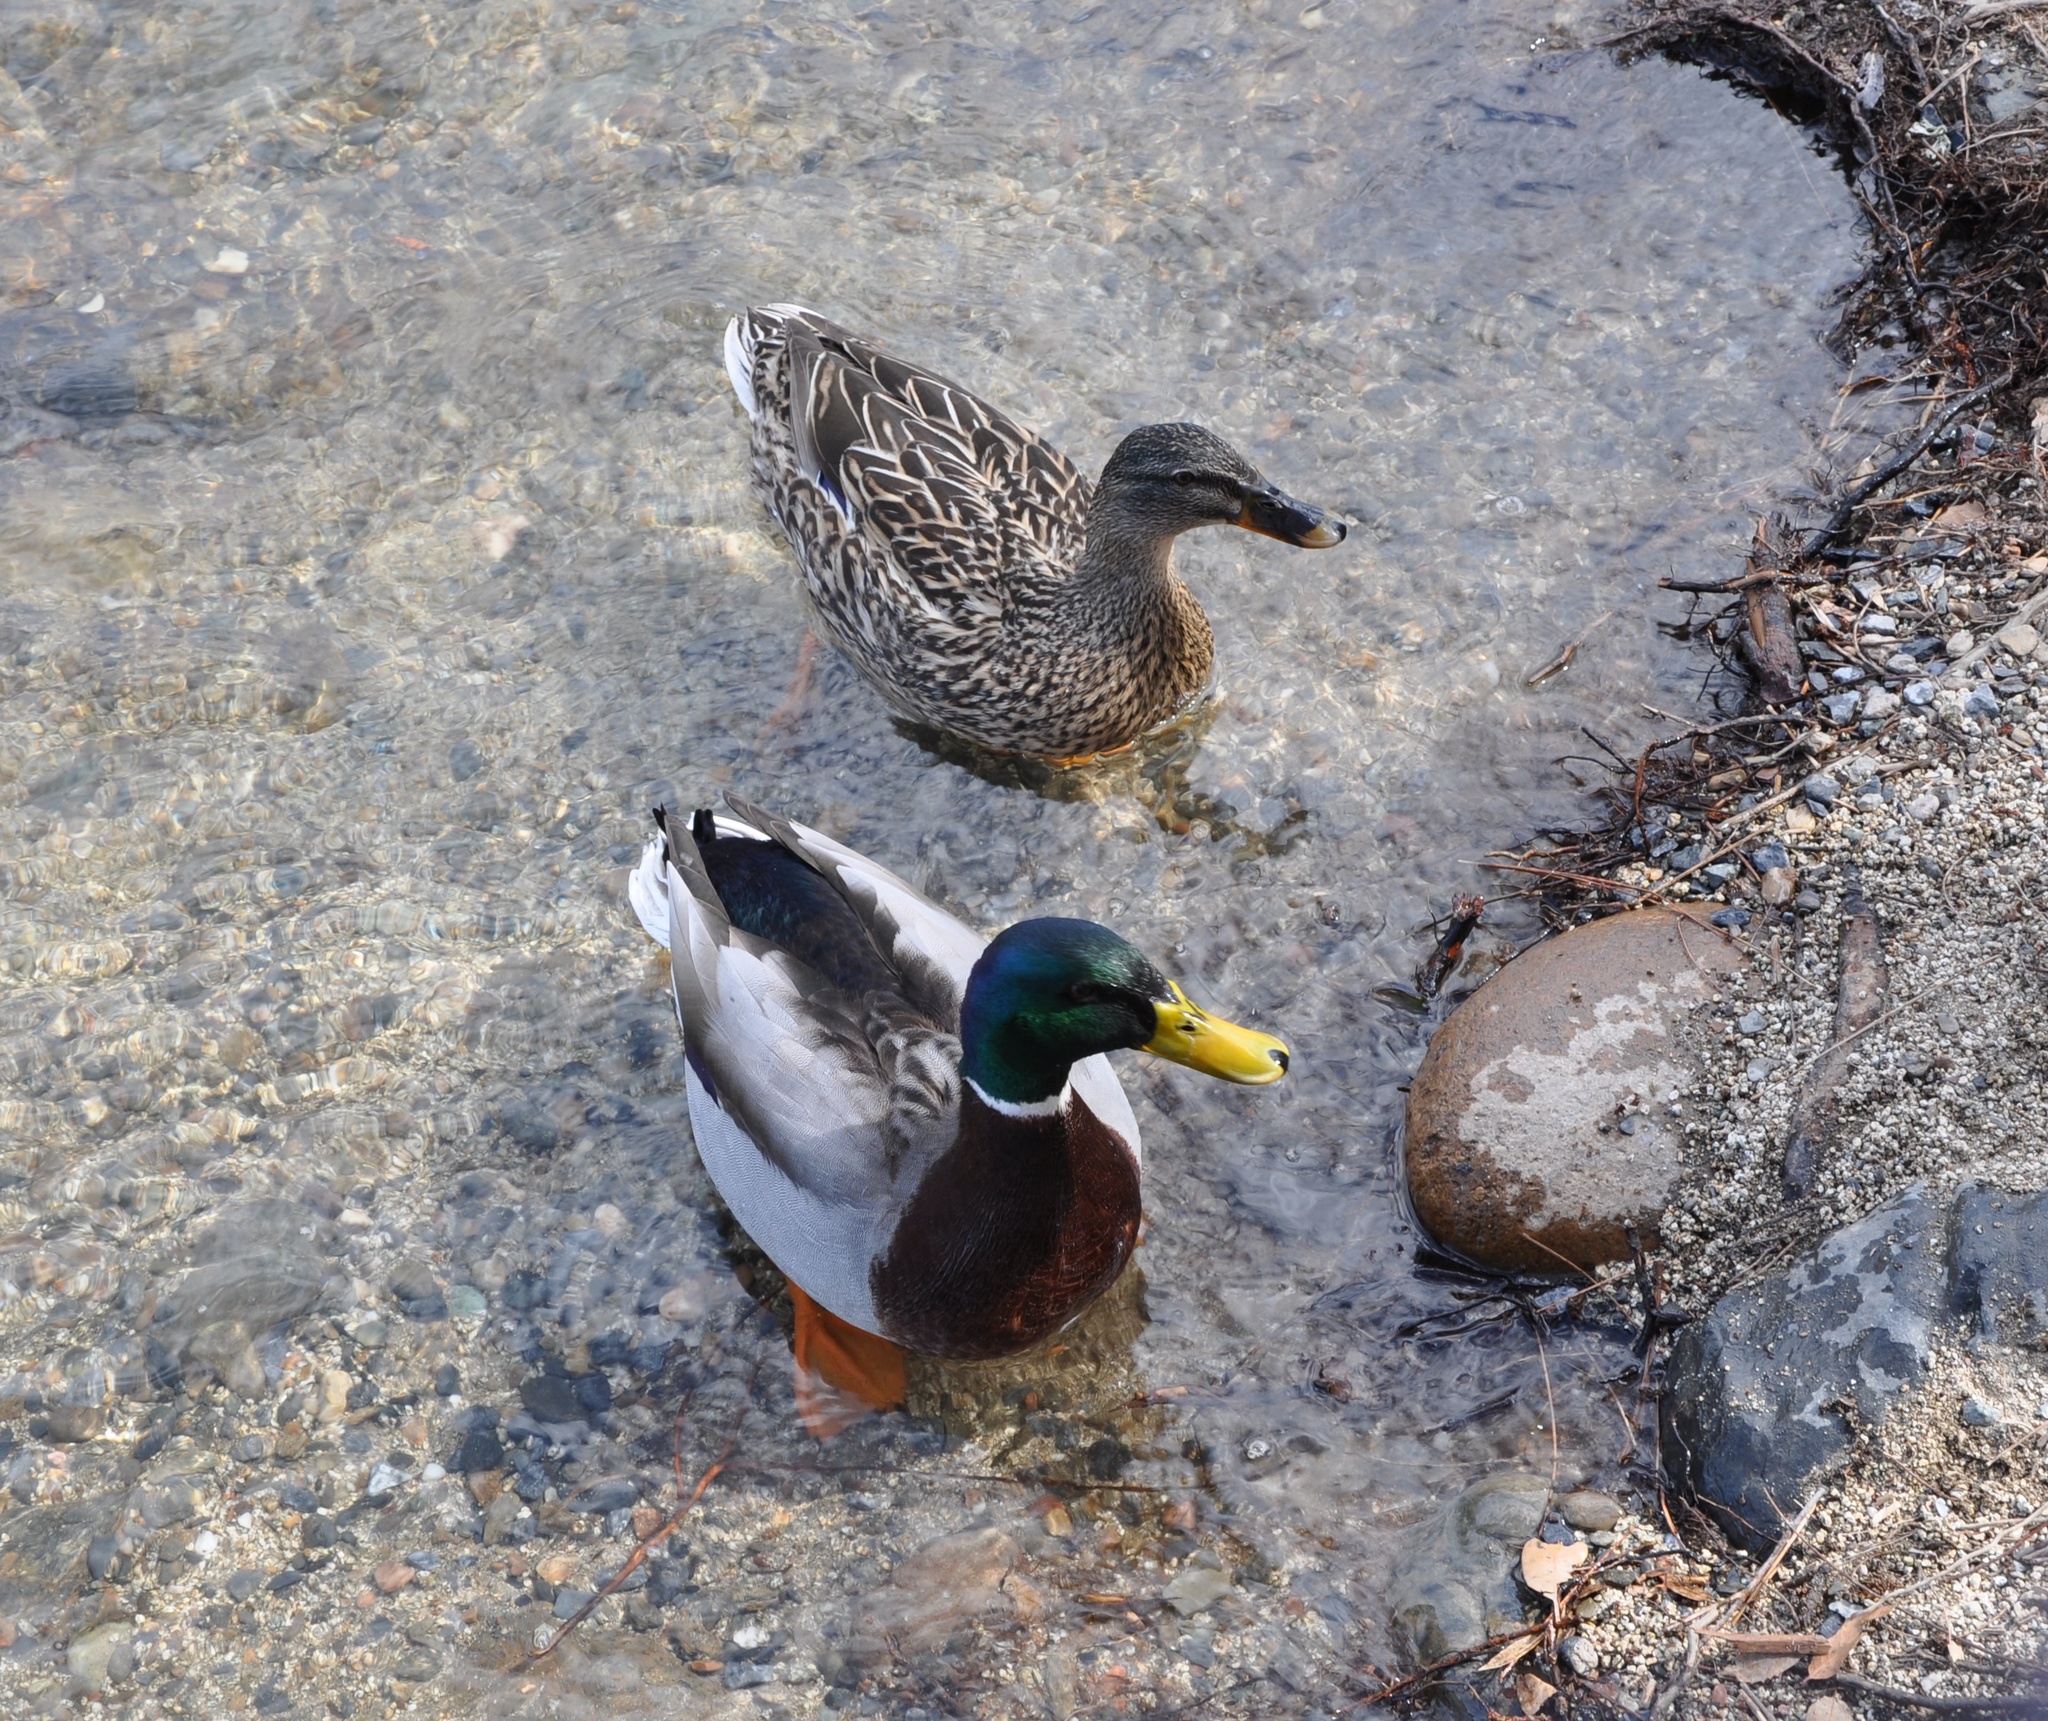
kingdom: Animalia
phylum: Chordata
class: Aves
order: Anseriformes
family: Anatidae
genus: Anas
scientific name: Anas platyrhynchos
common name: Mallard
